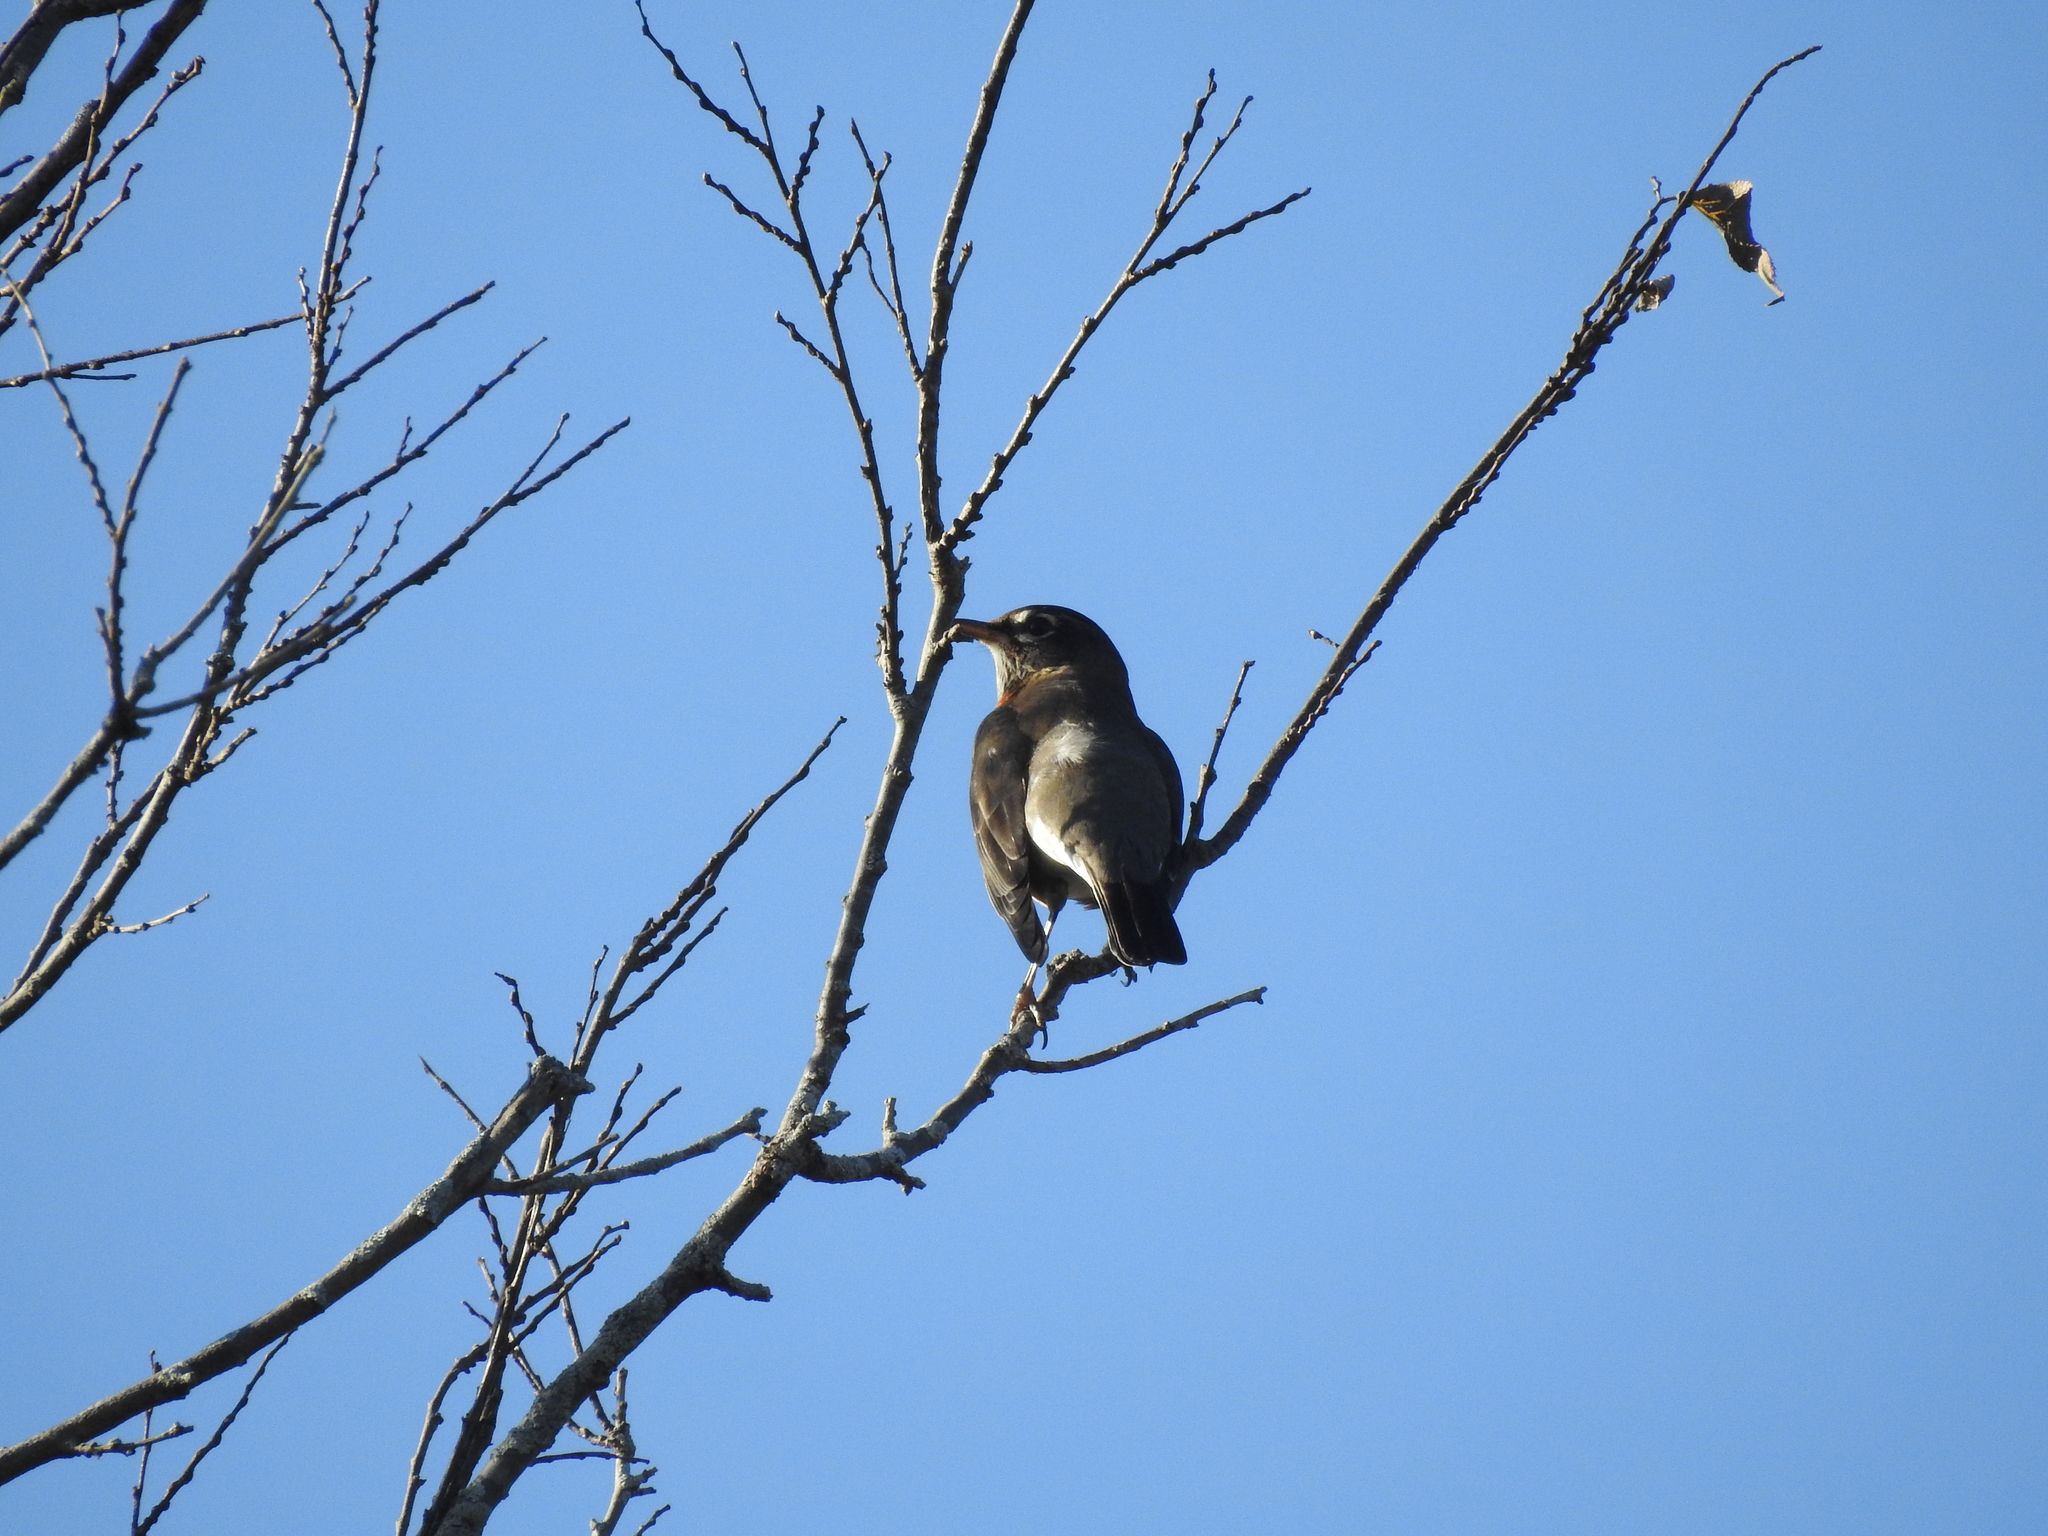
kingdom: Animalia
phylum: Chordata
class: Aves
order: Passeriformes
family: Turdidae
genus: Turdus
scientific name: Turdus migratorius
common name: American robin
